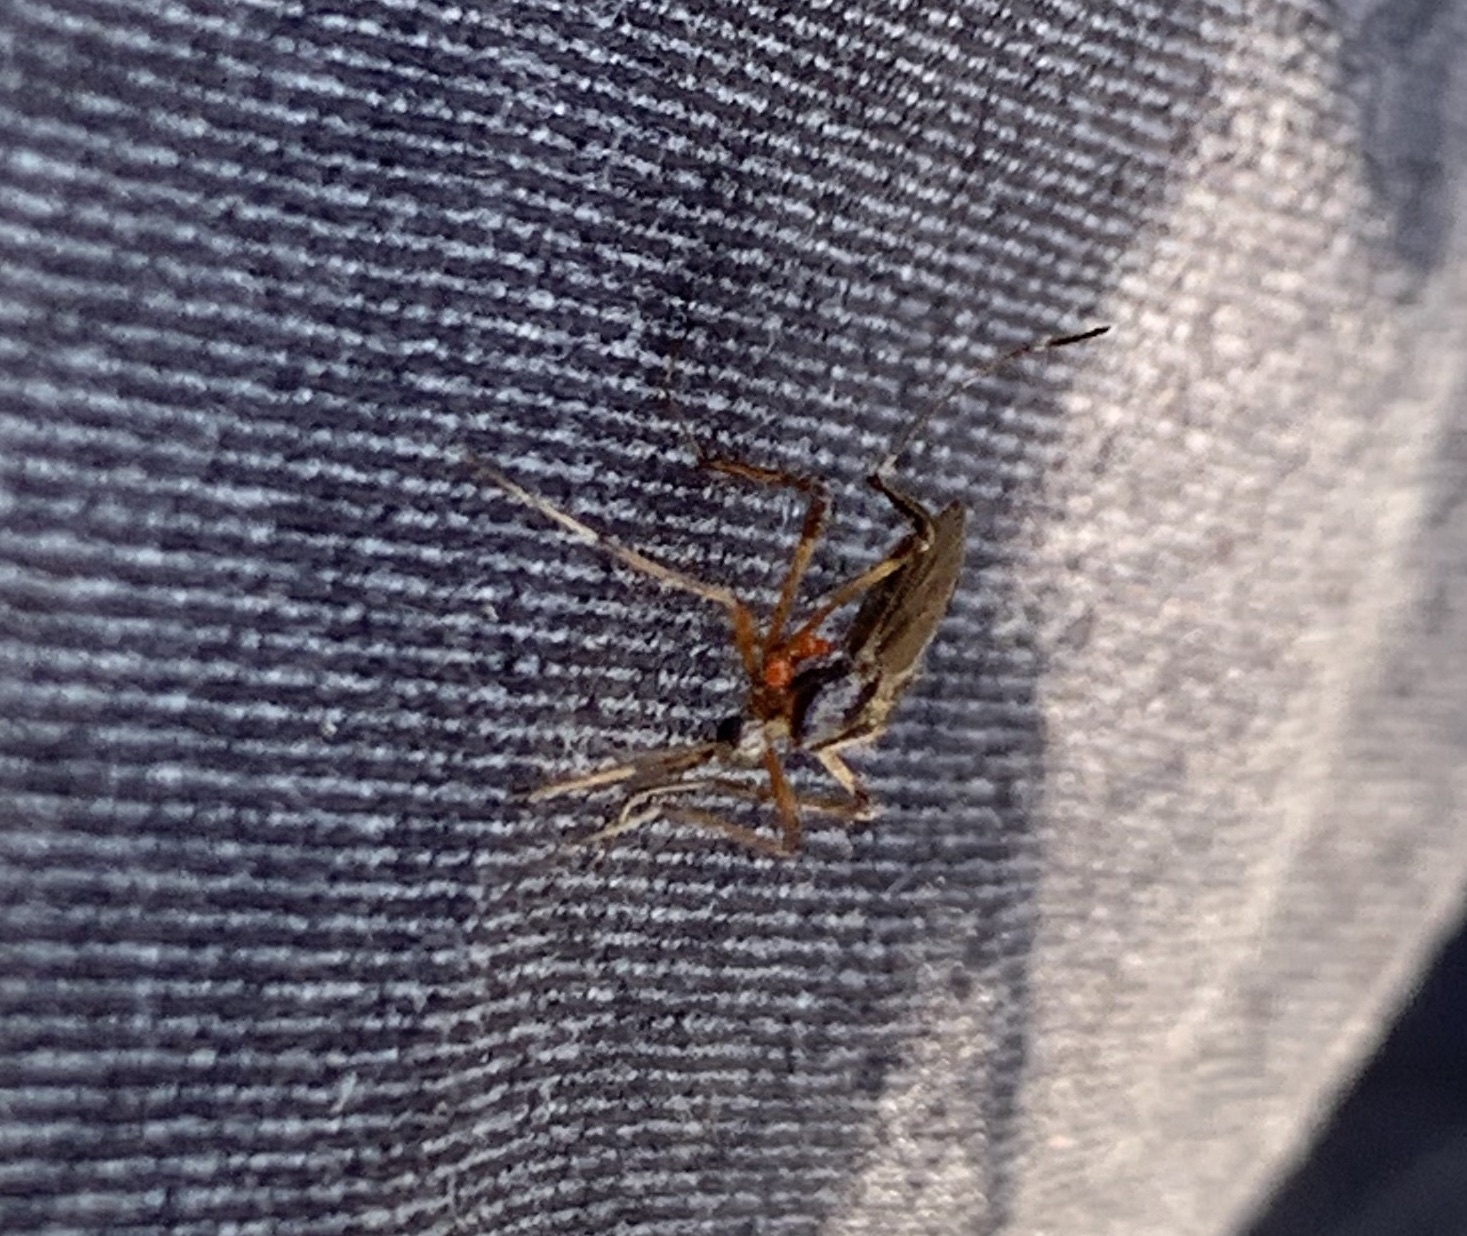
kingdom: Animalia
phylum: Arthropoda
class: Insecta
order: Diptera
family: Culicidae
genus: Psorophora
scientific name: Psorophora ciliata
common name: Gallinipper
